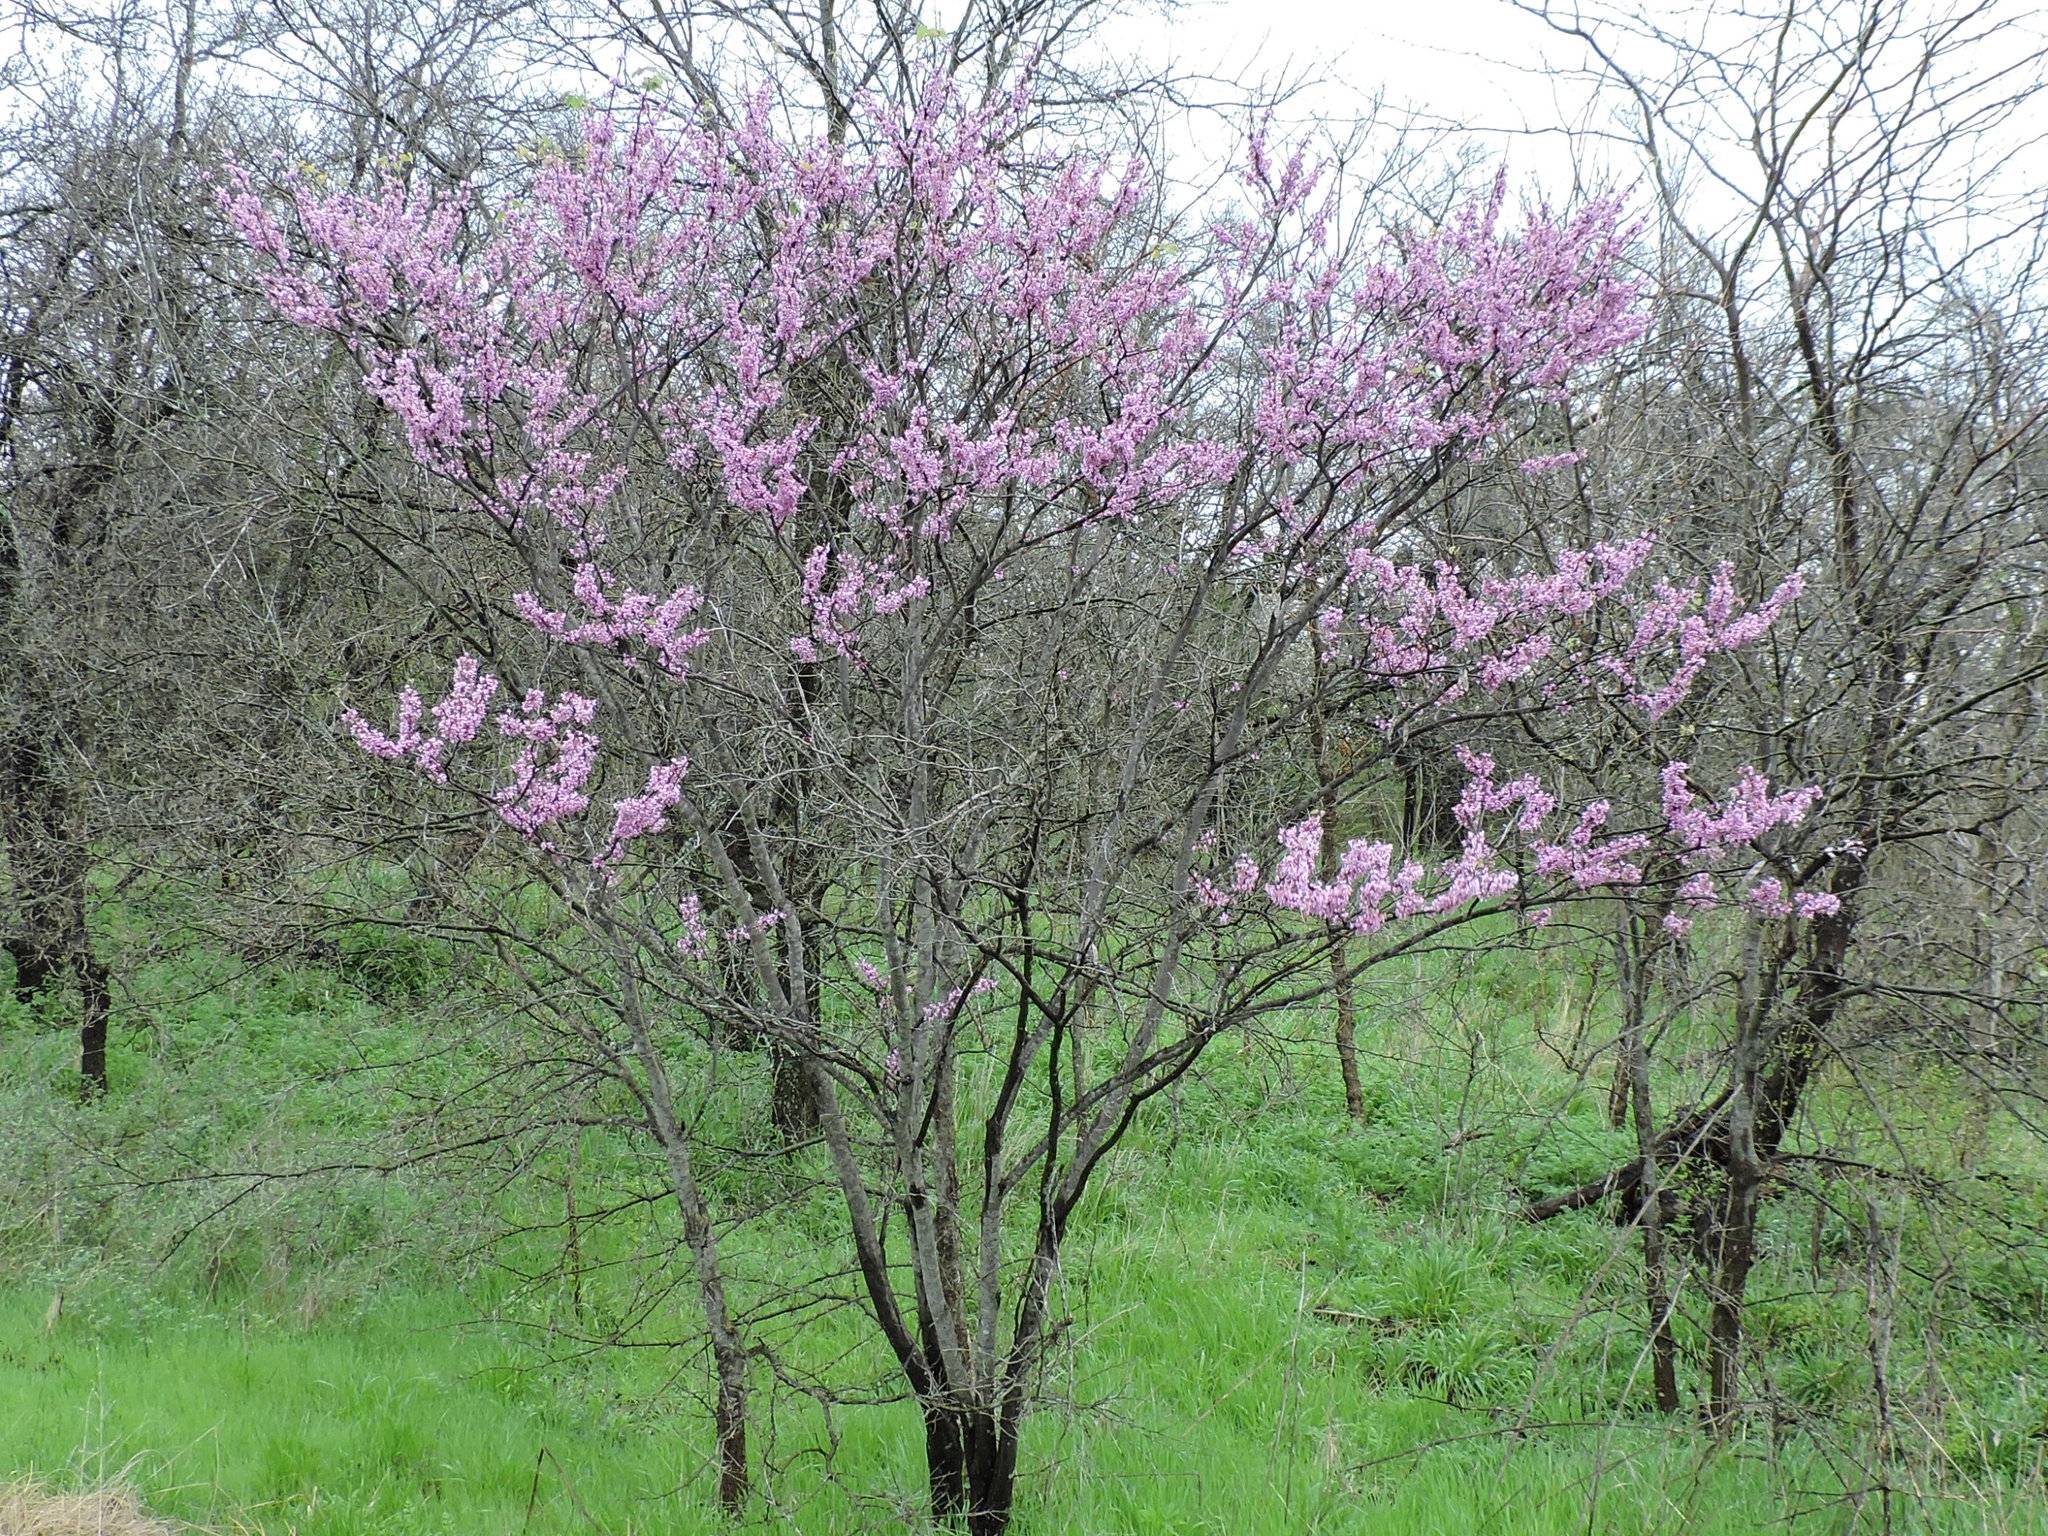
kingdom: Plantae
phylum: Tracheophyta
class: Magnoliopsida
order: Fabales
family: Fabaceae
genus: Cercis
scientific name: Cercis canadensis
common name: Eastern redbud
